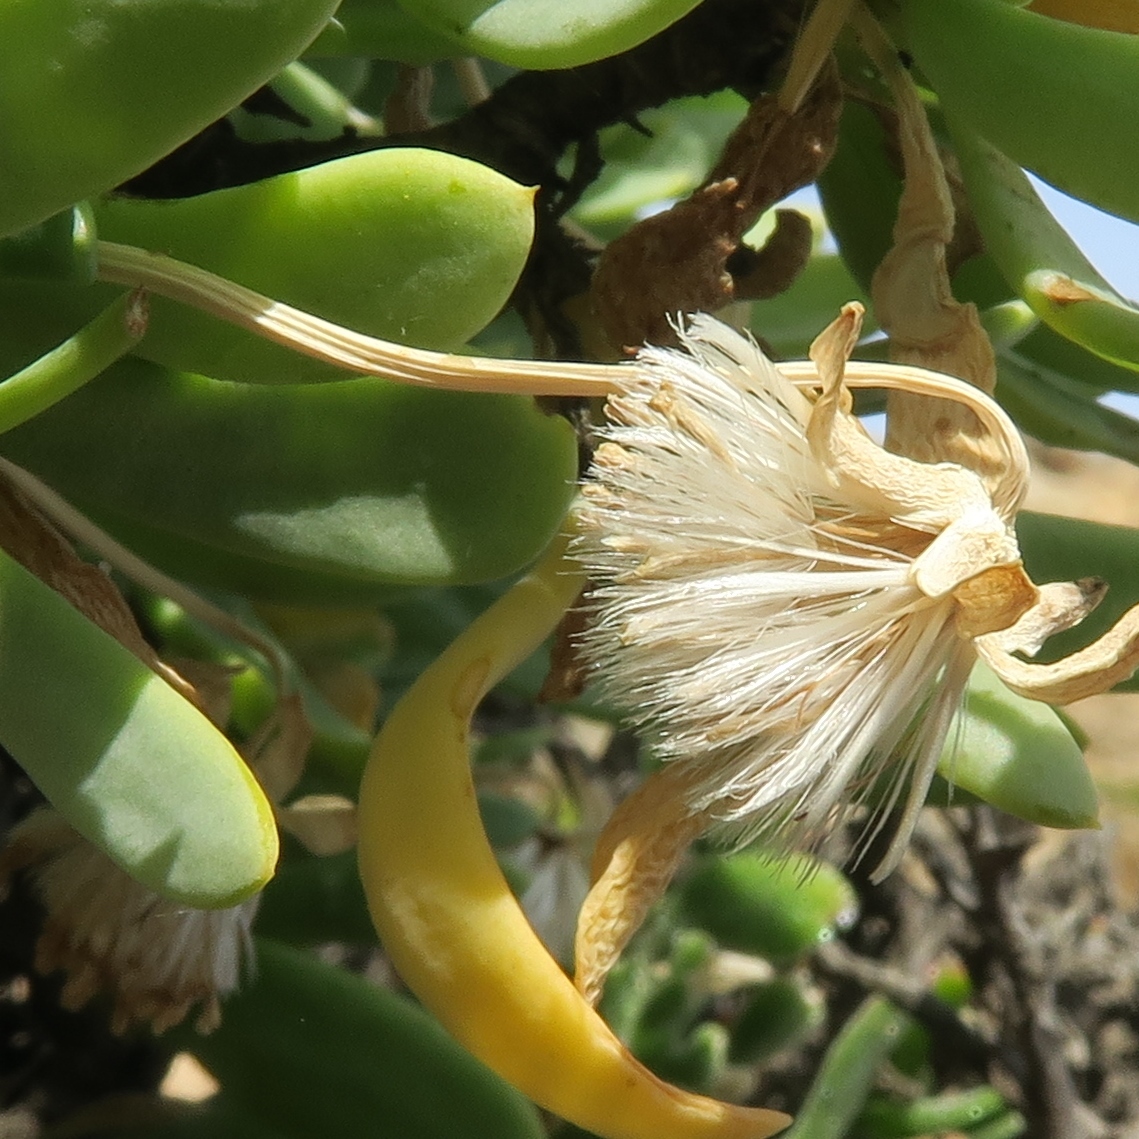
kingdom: Plantae
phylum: Tracheophyta
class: Magnoliopsida
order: Asterales
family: Asteraceae
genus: Othonna
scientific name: Othonna lasiocarpa
